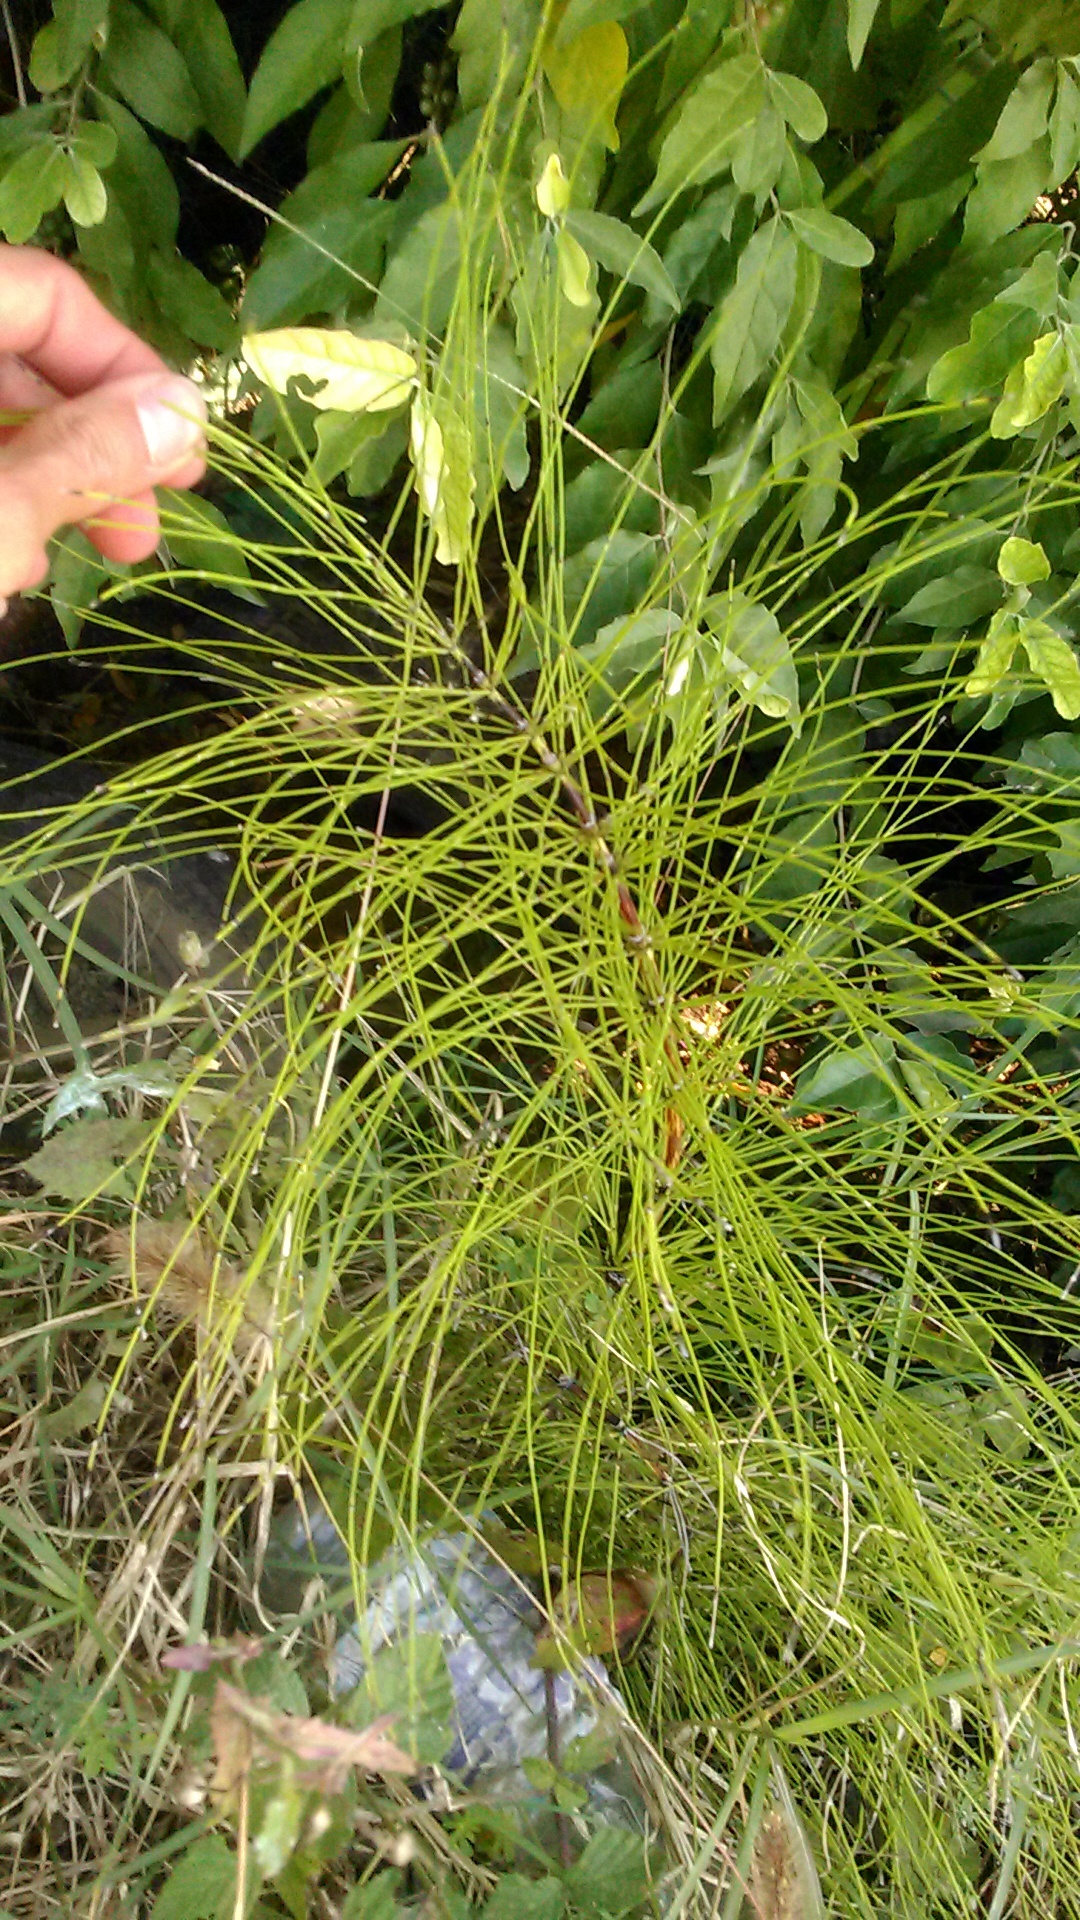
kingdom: Plantae
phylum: Tracheophyta
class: Polypodiopsida
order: Equisetales
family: Equisetaceae
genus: Equisetum
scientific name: Equisetum telmateia
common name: Great horsetail
